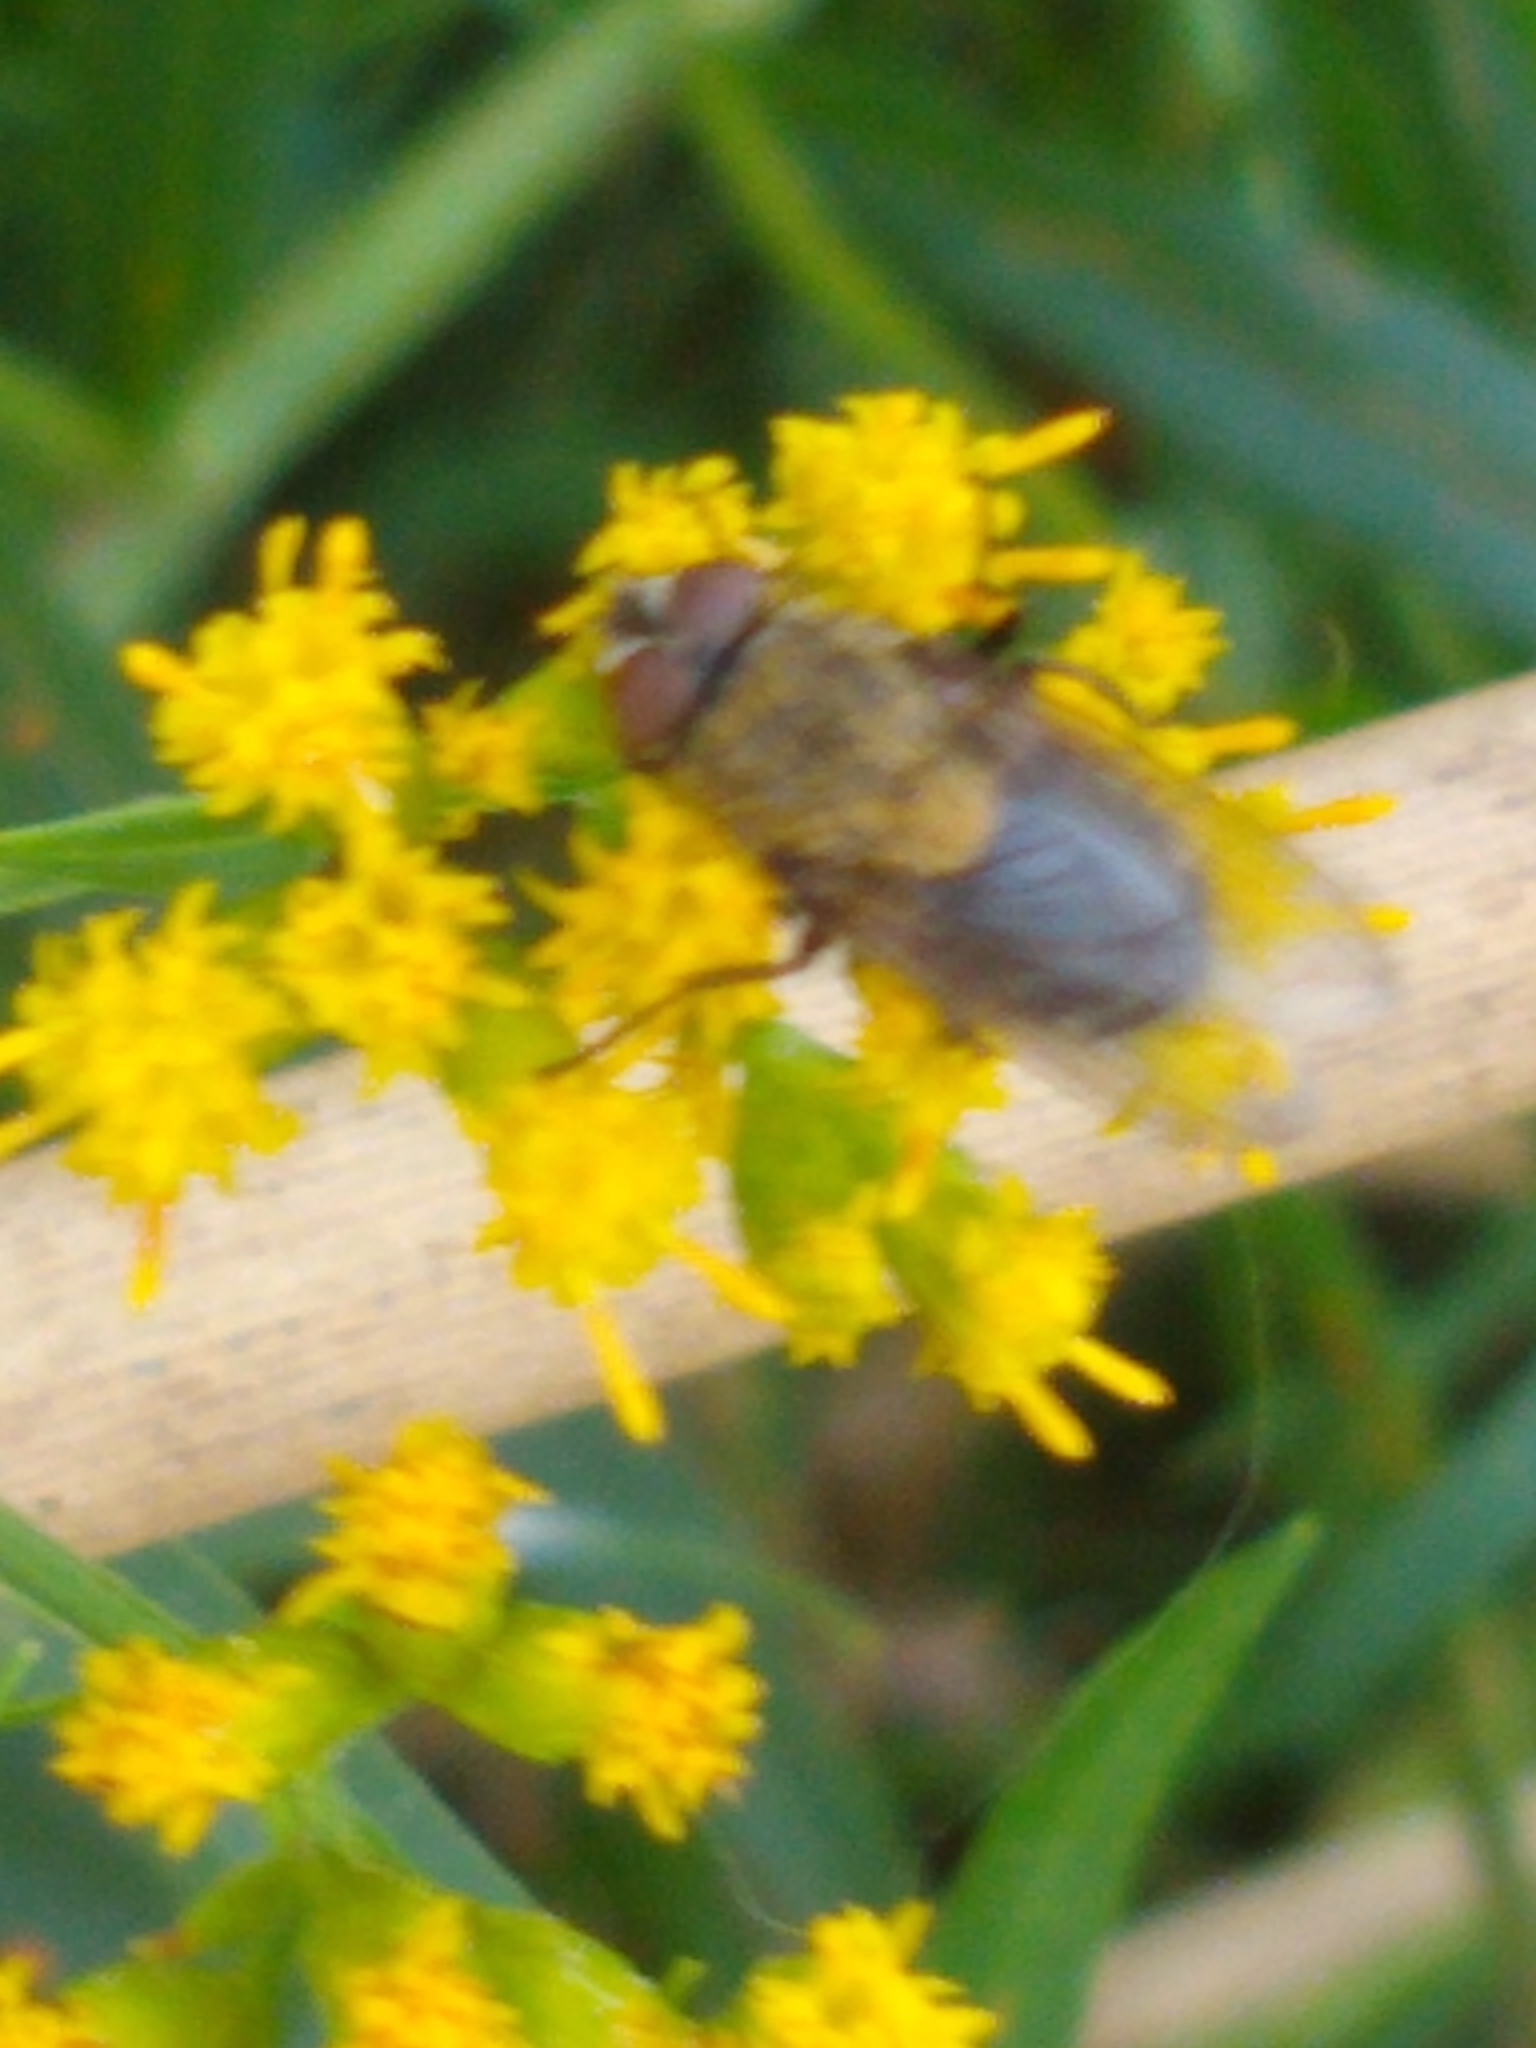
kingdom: Animalia
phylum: Arthropoda
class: Insecta
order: Diptera
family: Polleniidae
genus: Pollenia
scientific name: Pollenia
